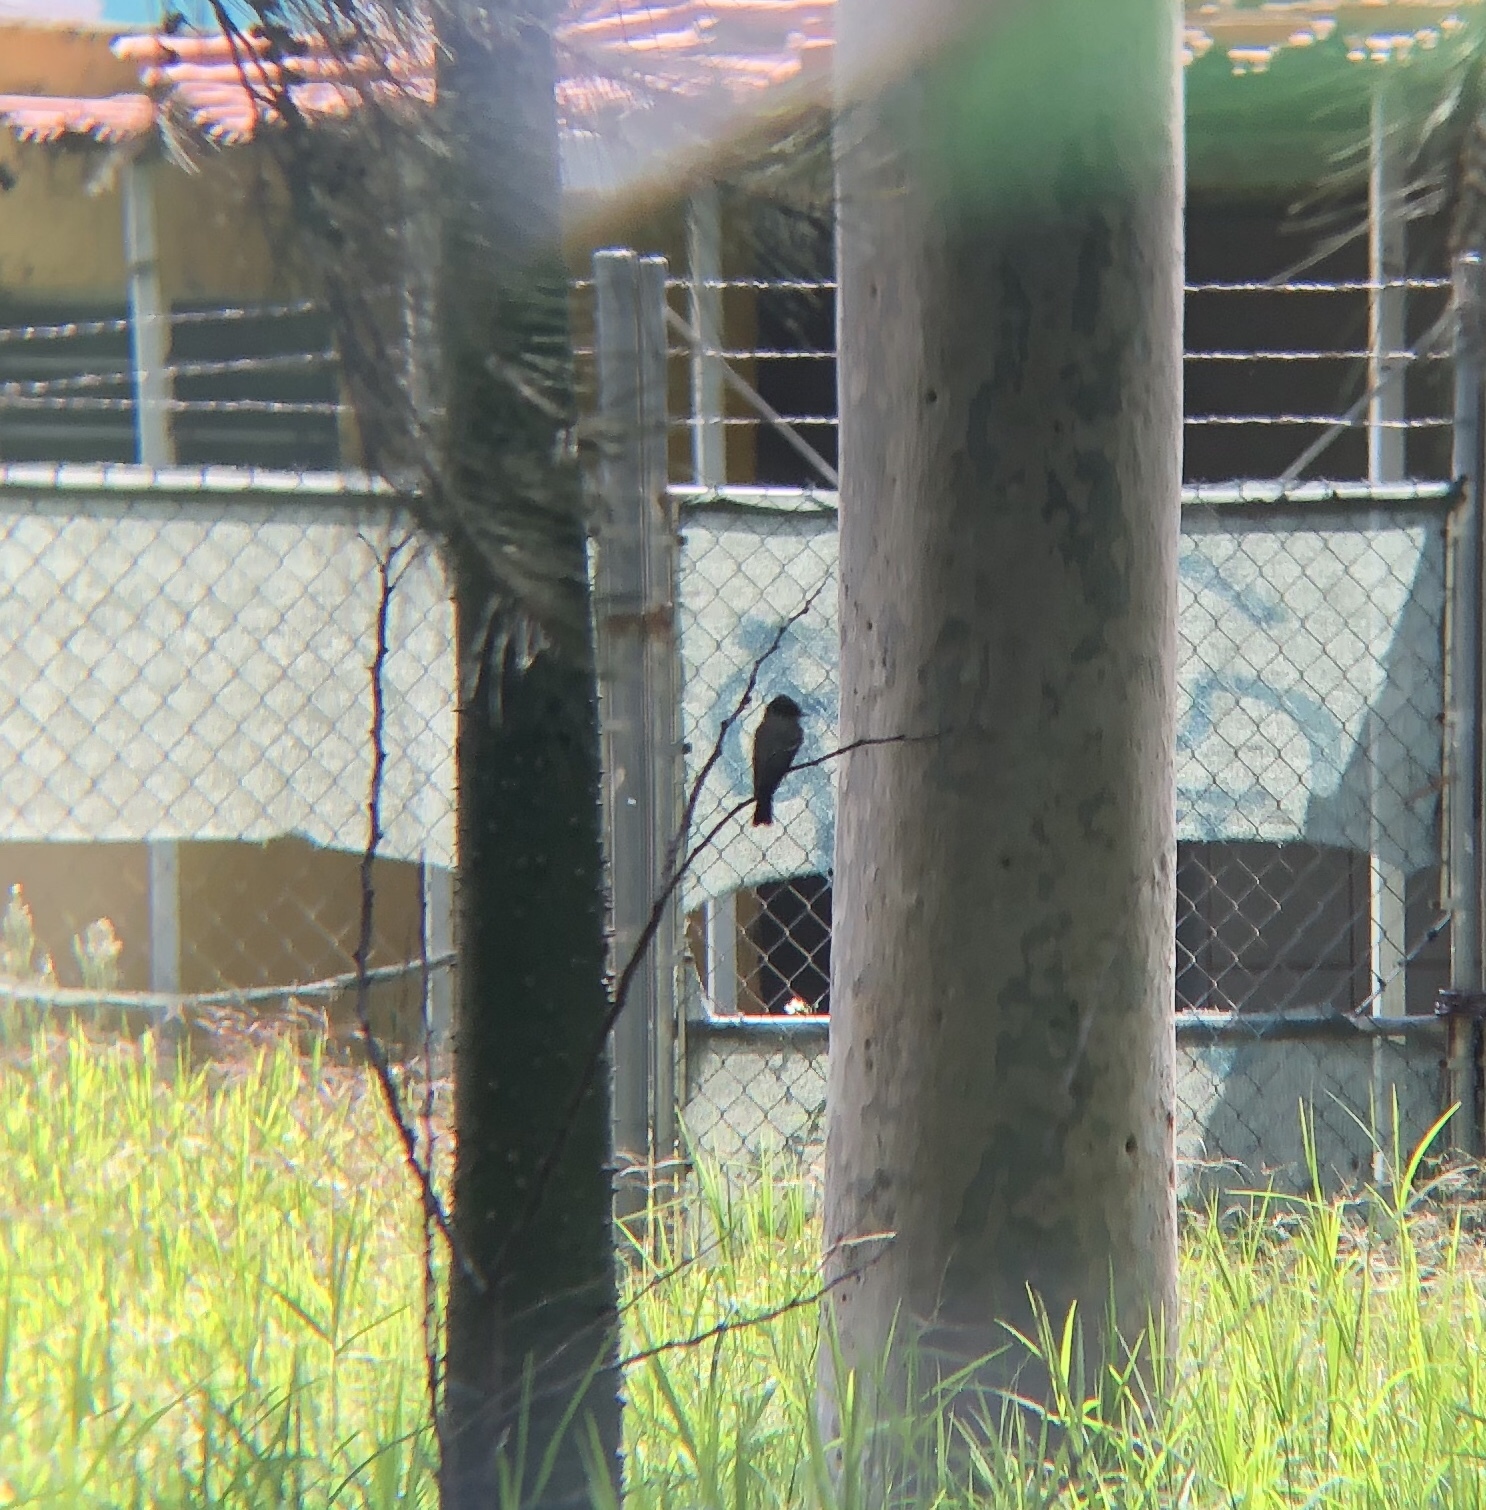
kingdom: Animalia
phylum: Chordata
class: Aves
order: Passeriformes
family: Tyrannidae
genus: Contopus
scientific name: Contopus sordidulus
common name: Western wood-pewee
